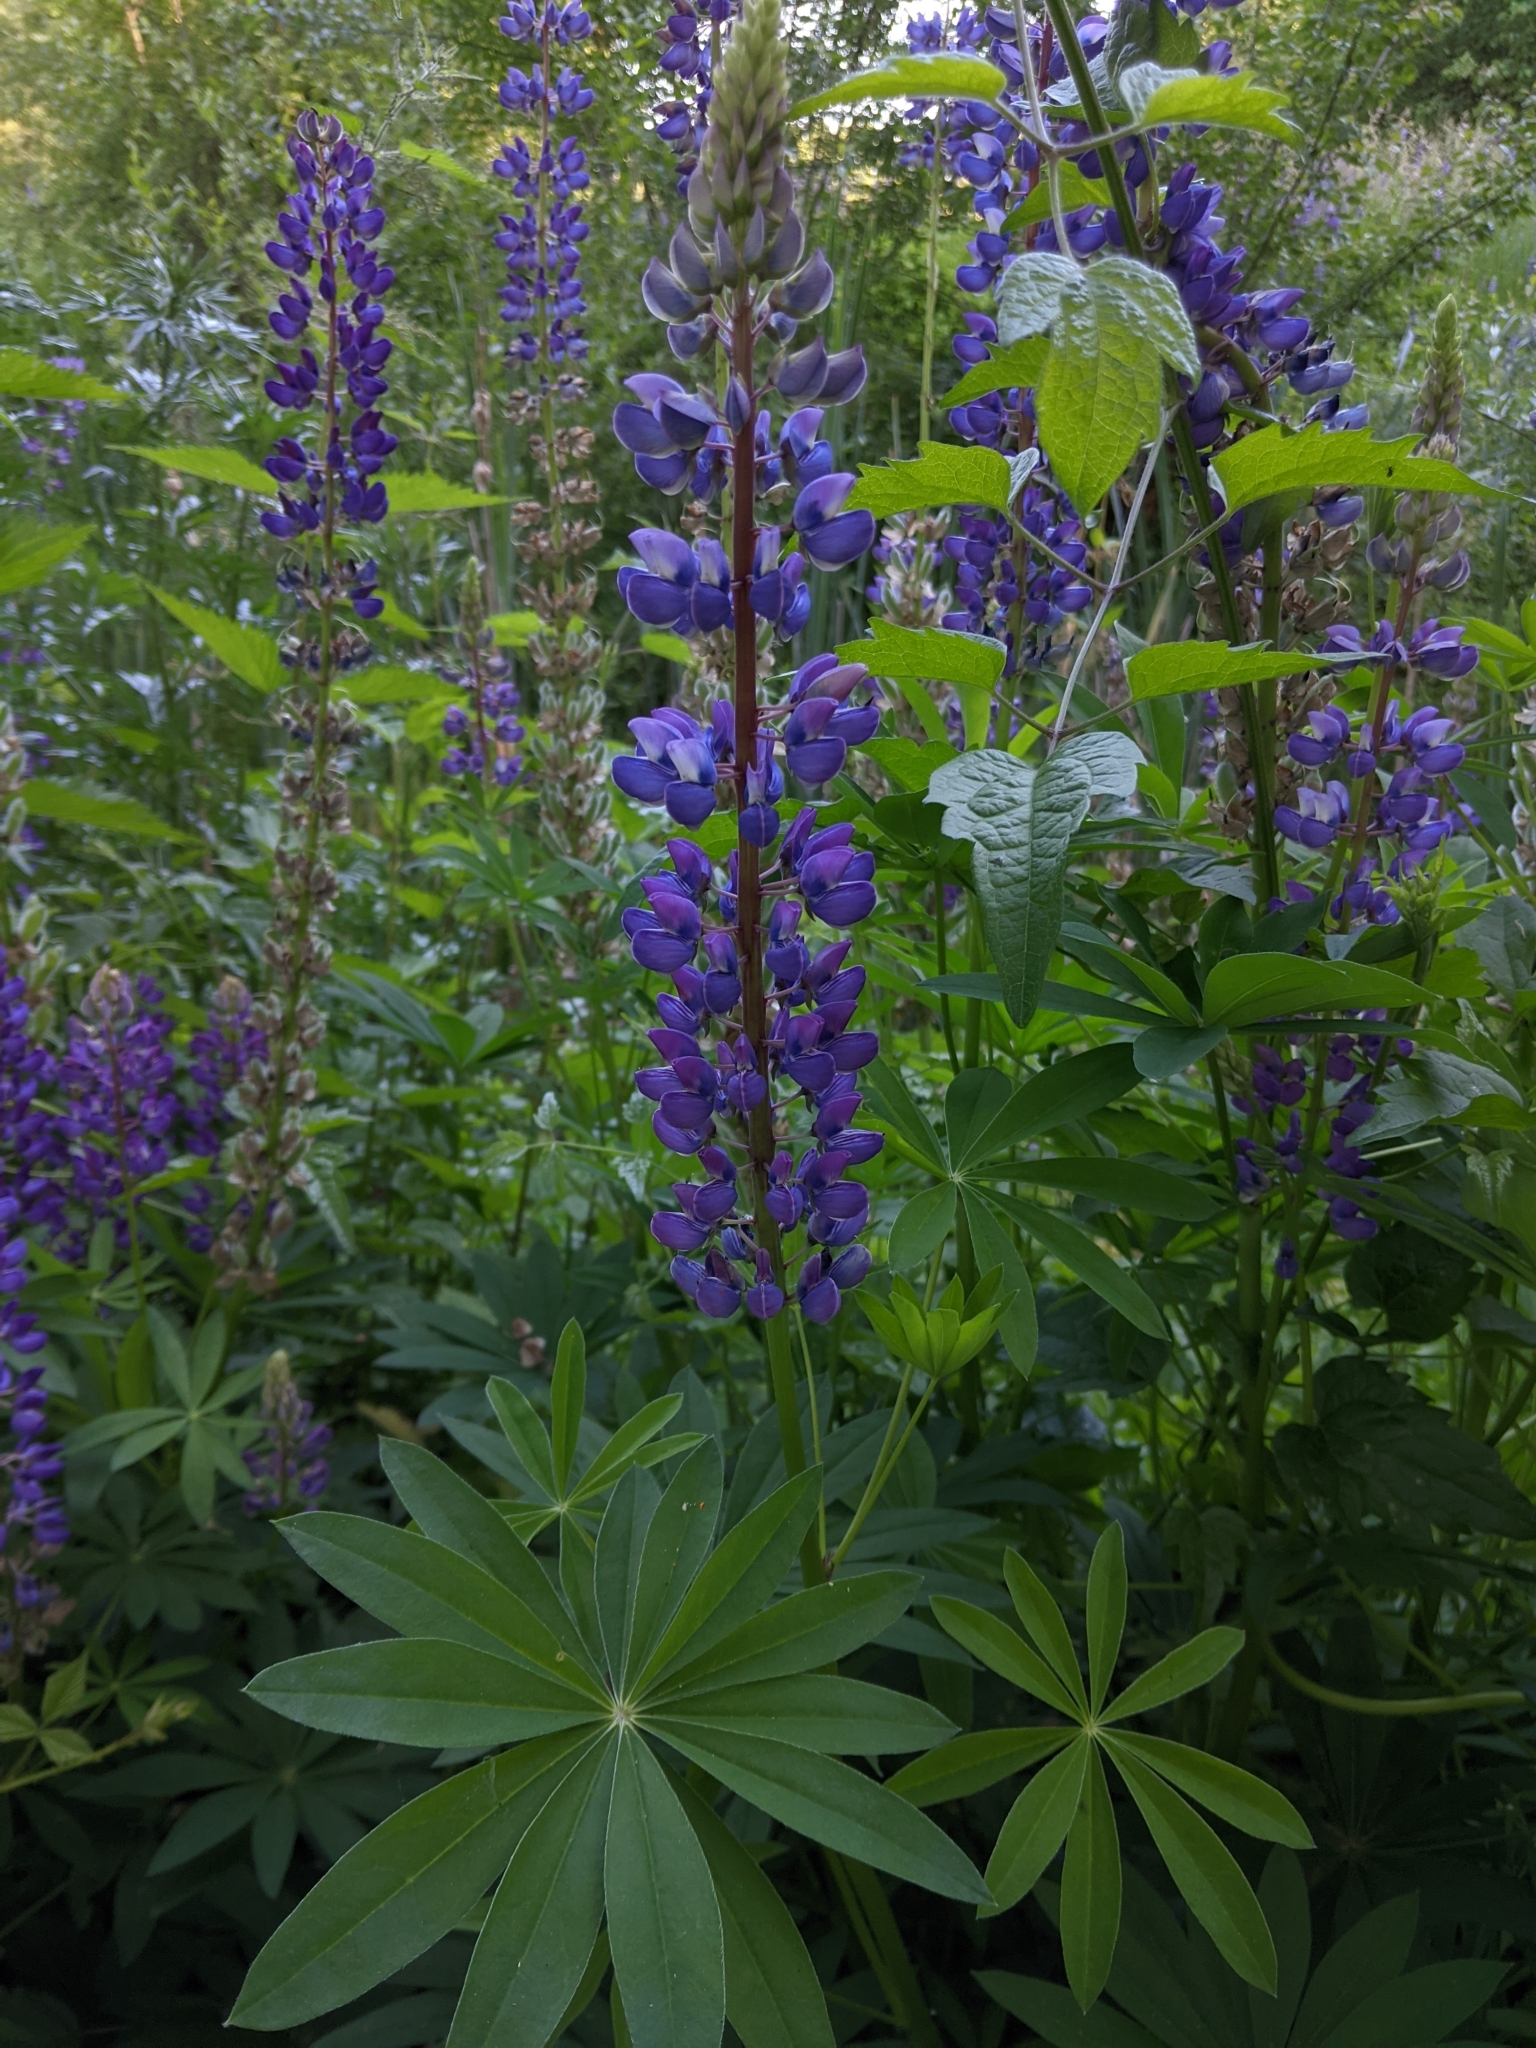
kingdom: Plantae
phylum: Tracheophyta
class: Magnoliopsida
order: Fabales
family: Fabaceae
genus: Lupinus
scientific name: Lupinus polyphyllus
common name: Garden lupin
